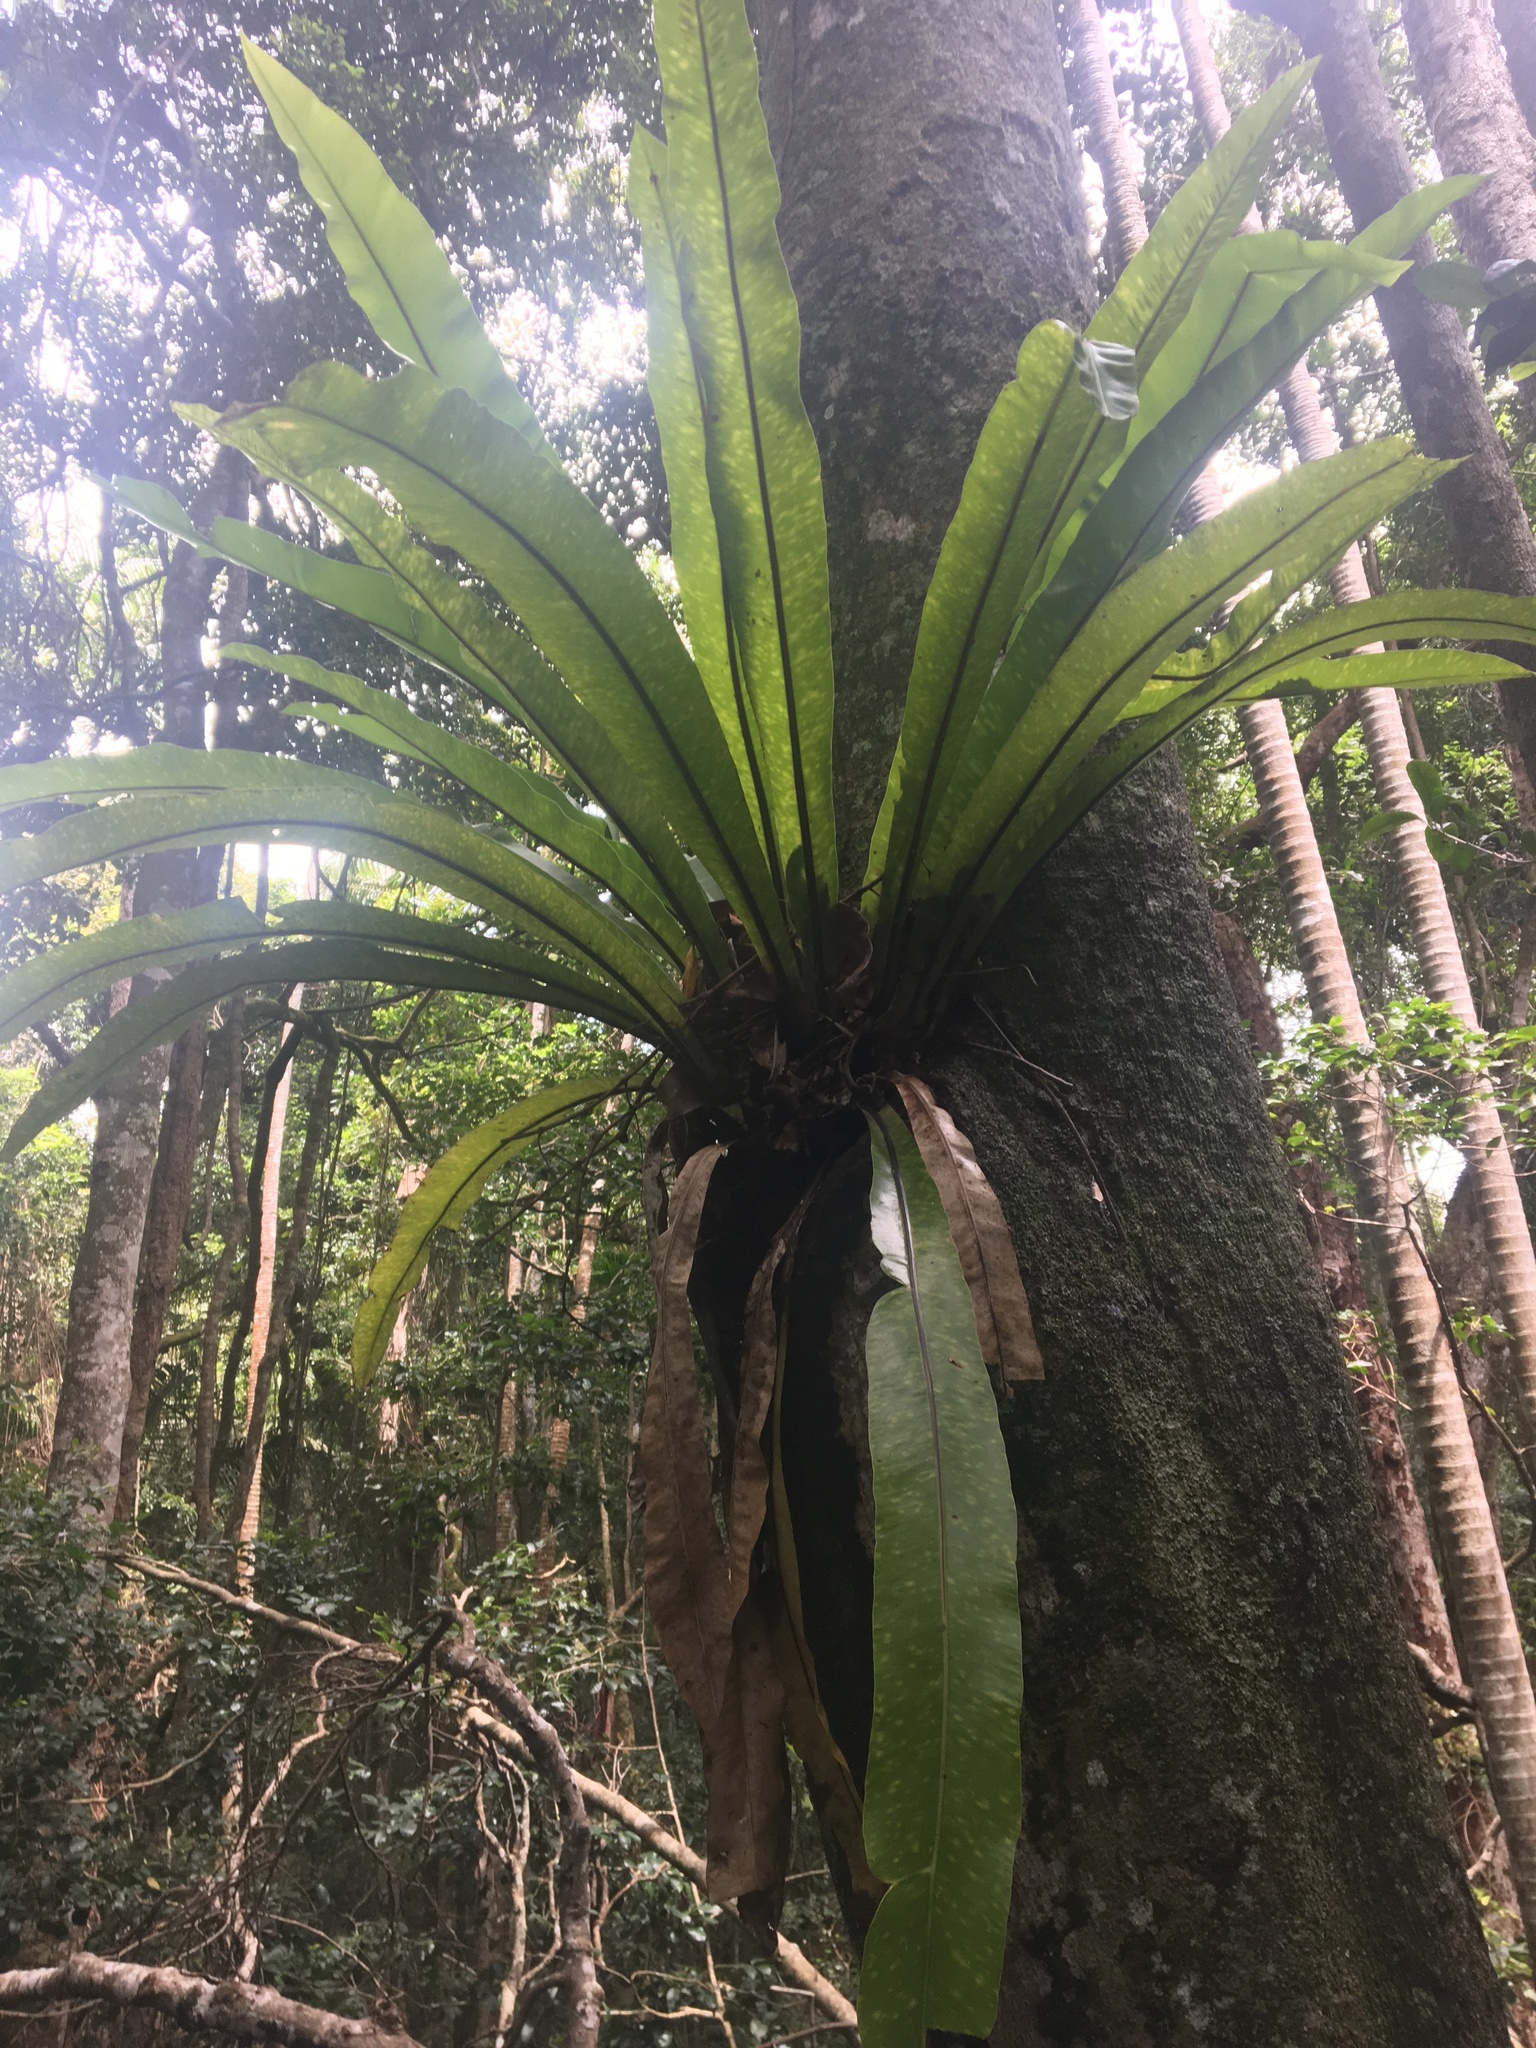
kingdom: Plantae
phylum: Tracheophyta
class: Polypodiopsida
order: Polypodiales
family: Aspleniaceae
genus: Asplenium
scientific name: Asplenium australasicum
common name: Bird's-nest fern
